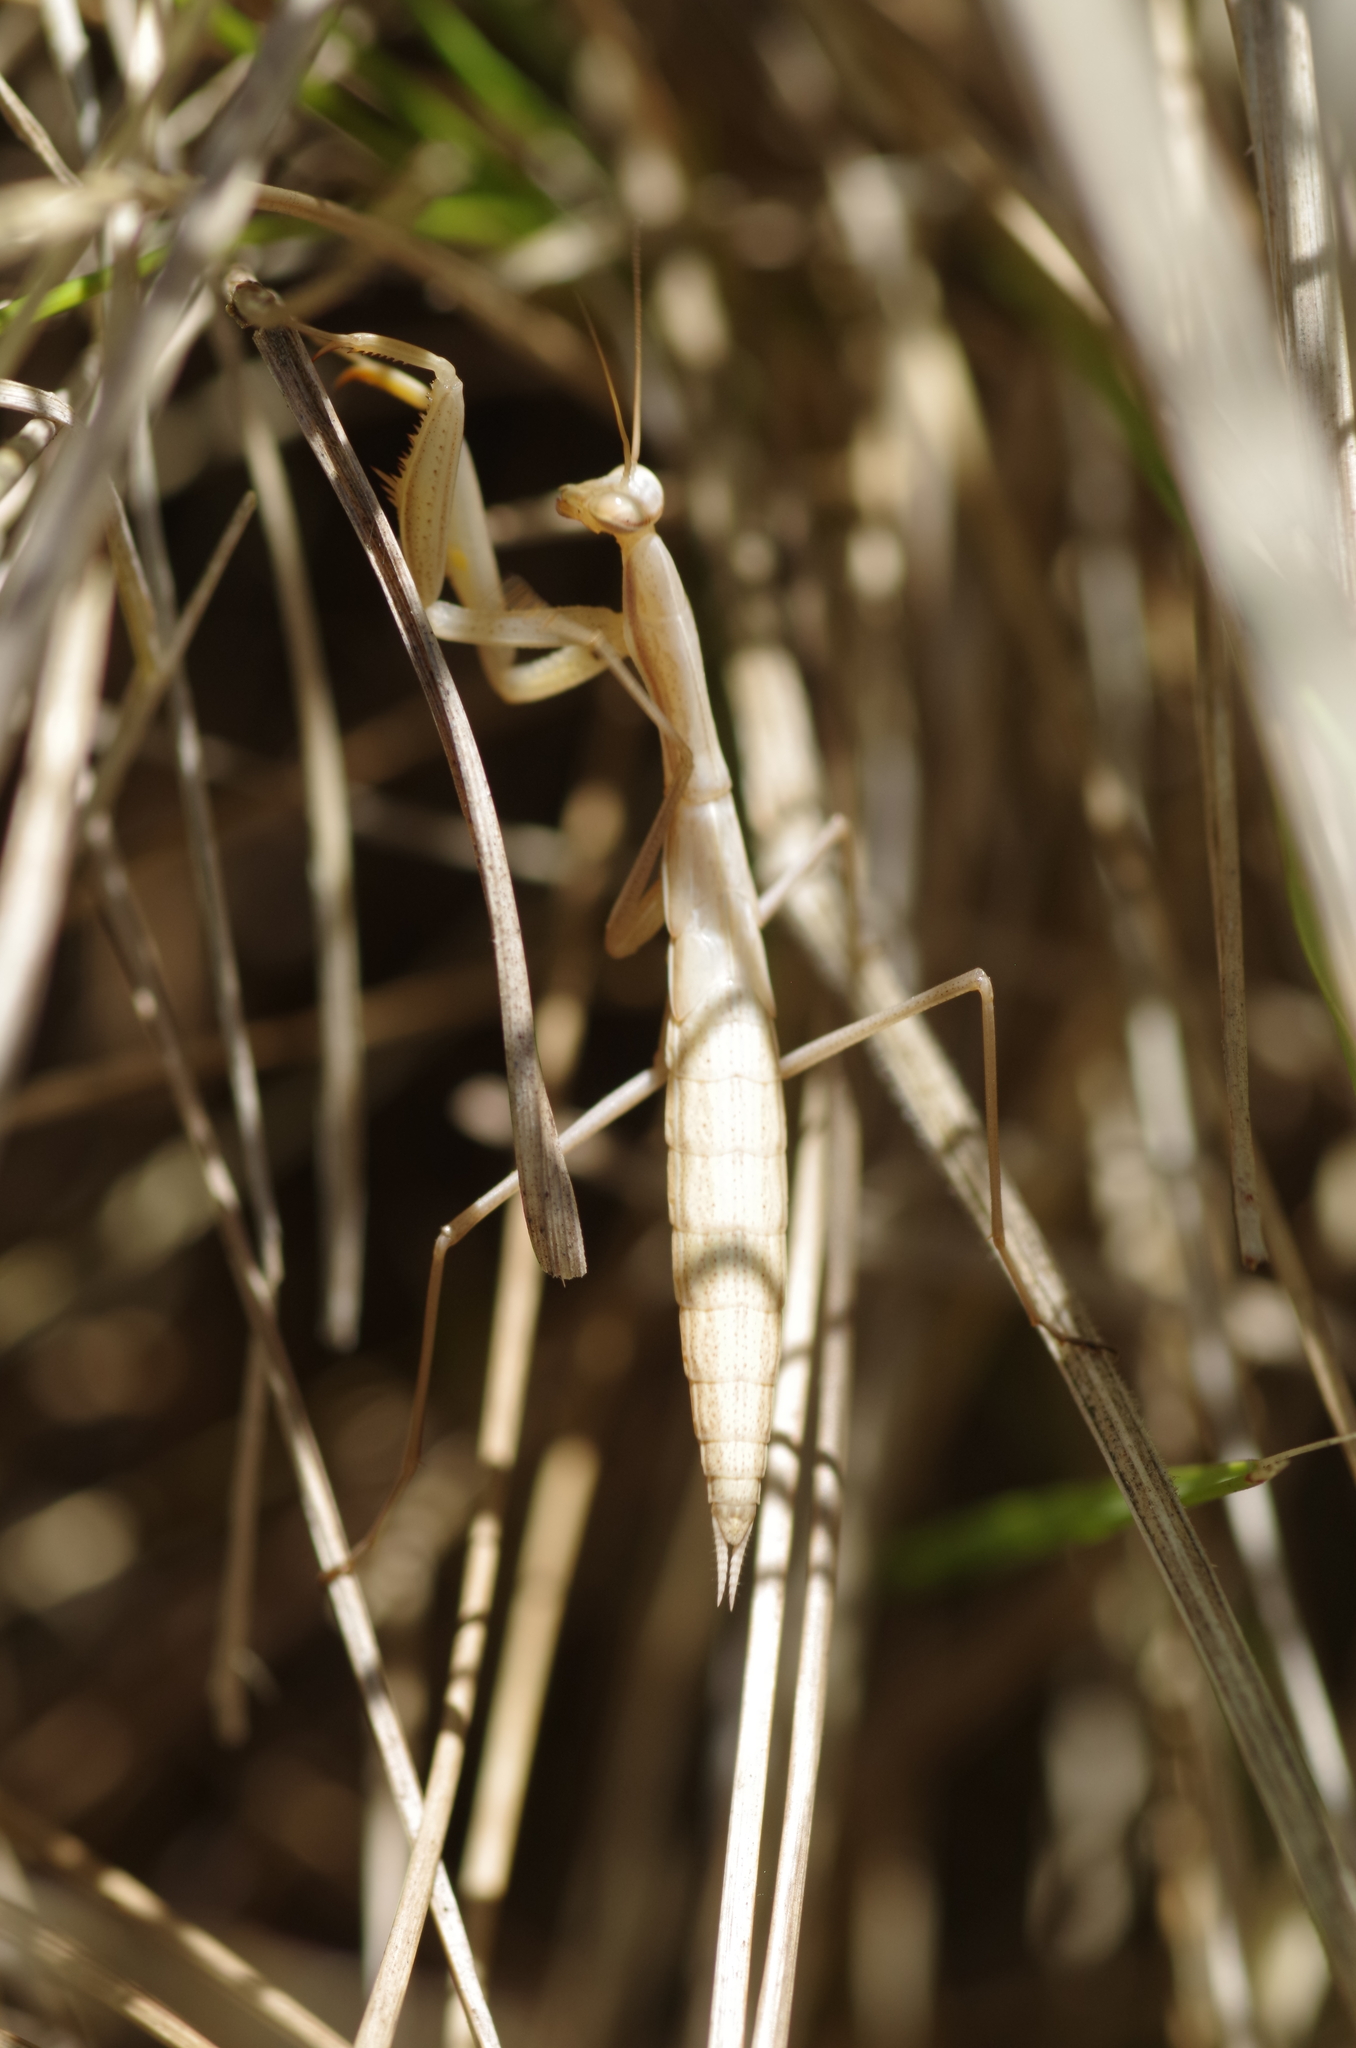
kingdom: Animalia
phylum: Arthropoda
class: Insecta
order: Mantodea
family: Mantidae
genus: Mantis
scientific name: Mantis religiosa
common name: Praying mantis
